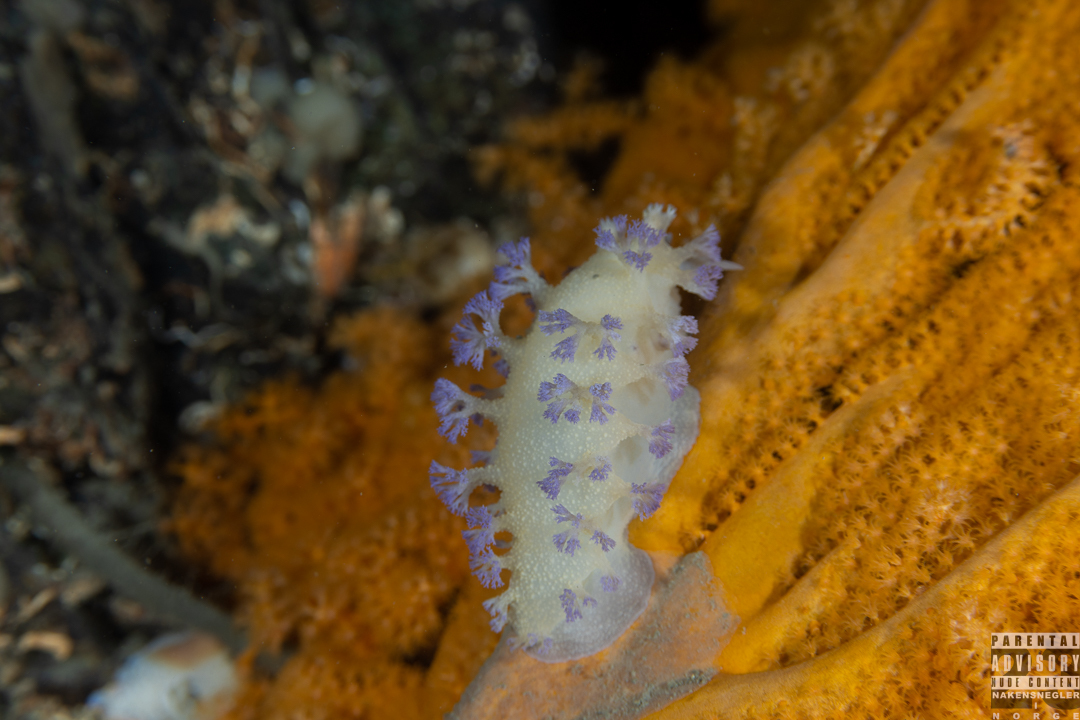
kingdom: Animalia
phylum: Mollusca
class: Gastropoda
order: Nudibranchia
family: Tritoniidae
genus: Tritonia
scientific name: Tritonia griegi
